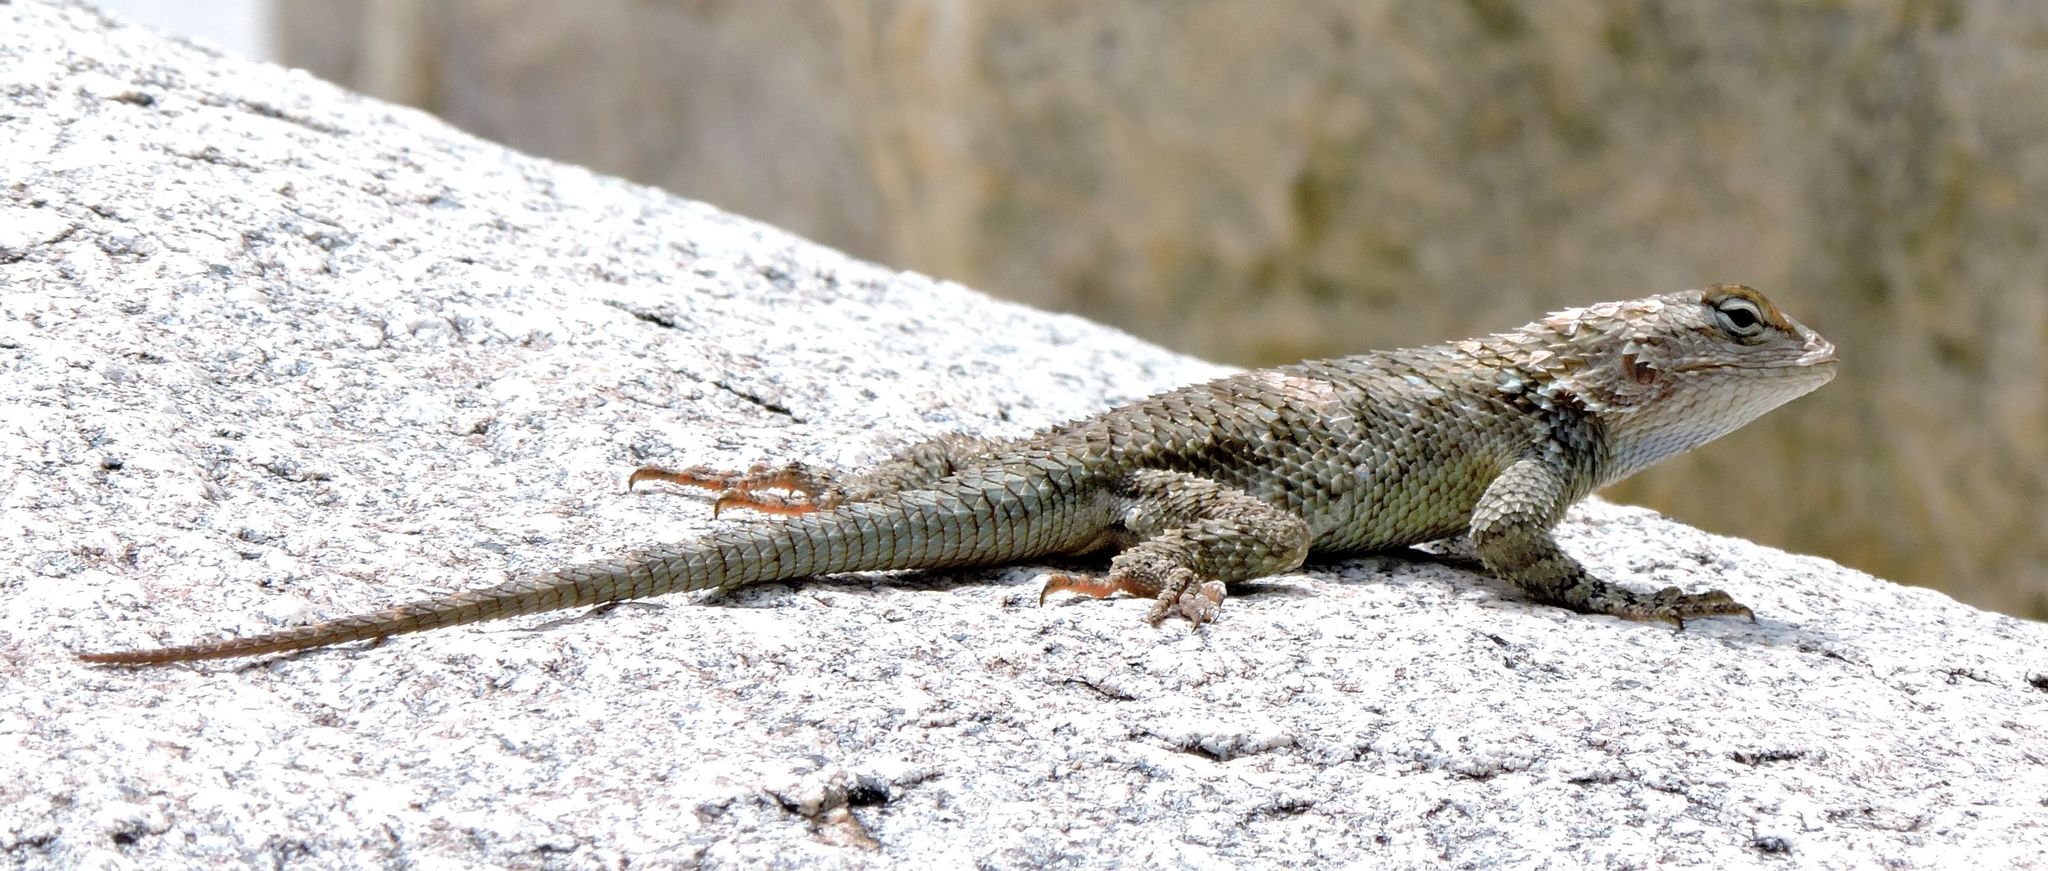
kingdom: Animalia
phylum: Chordata
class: Squamata
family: Phrynosomatidae
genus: Sceloporus
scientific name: Sceloporus clarkii
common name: Clark's spiny lizard
